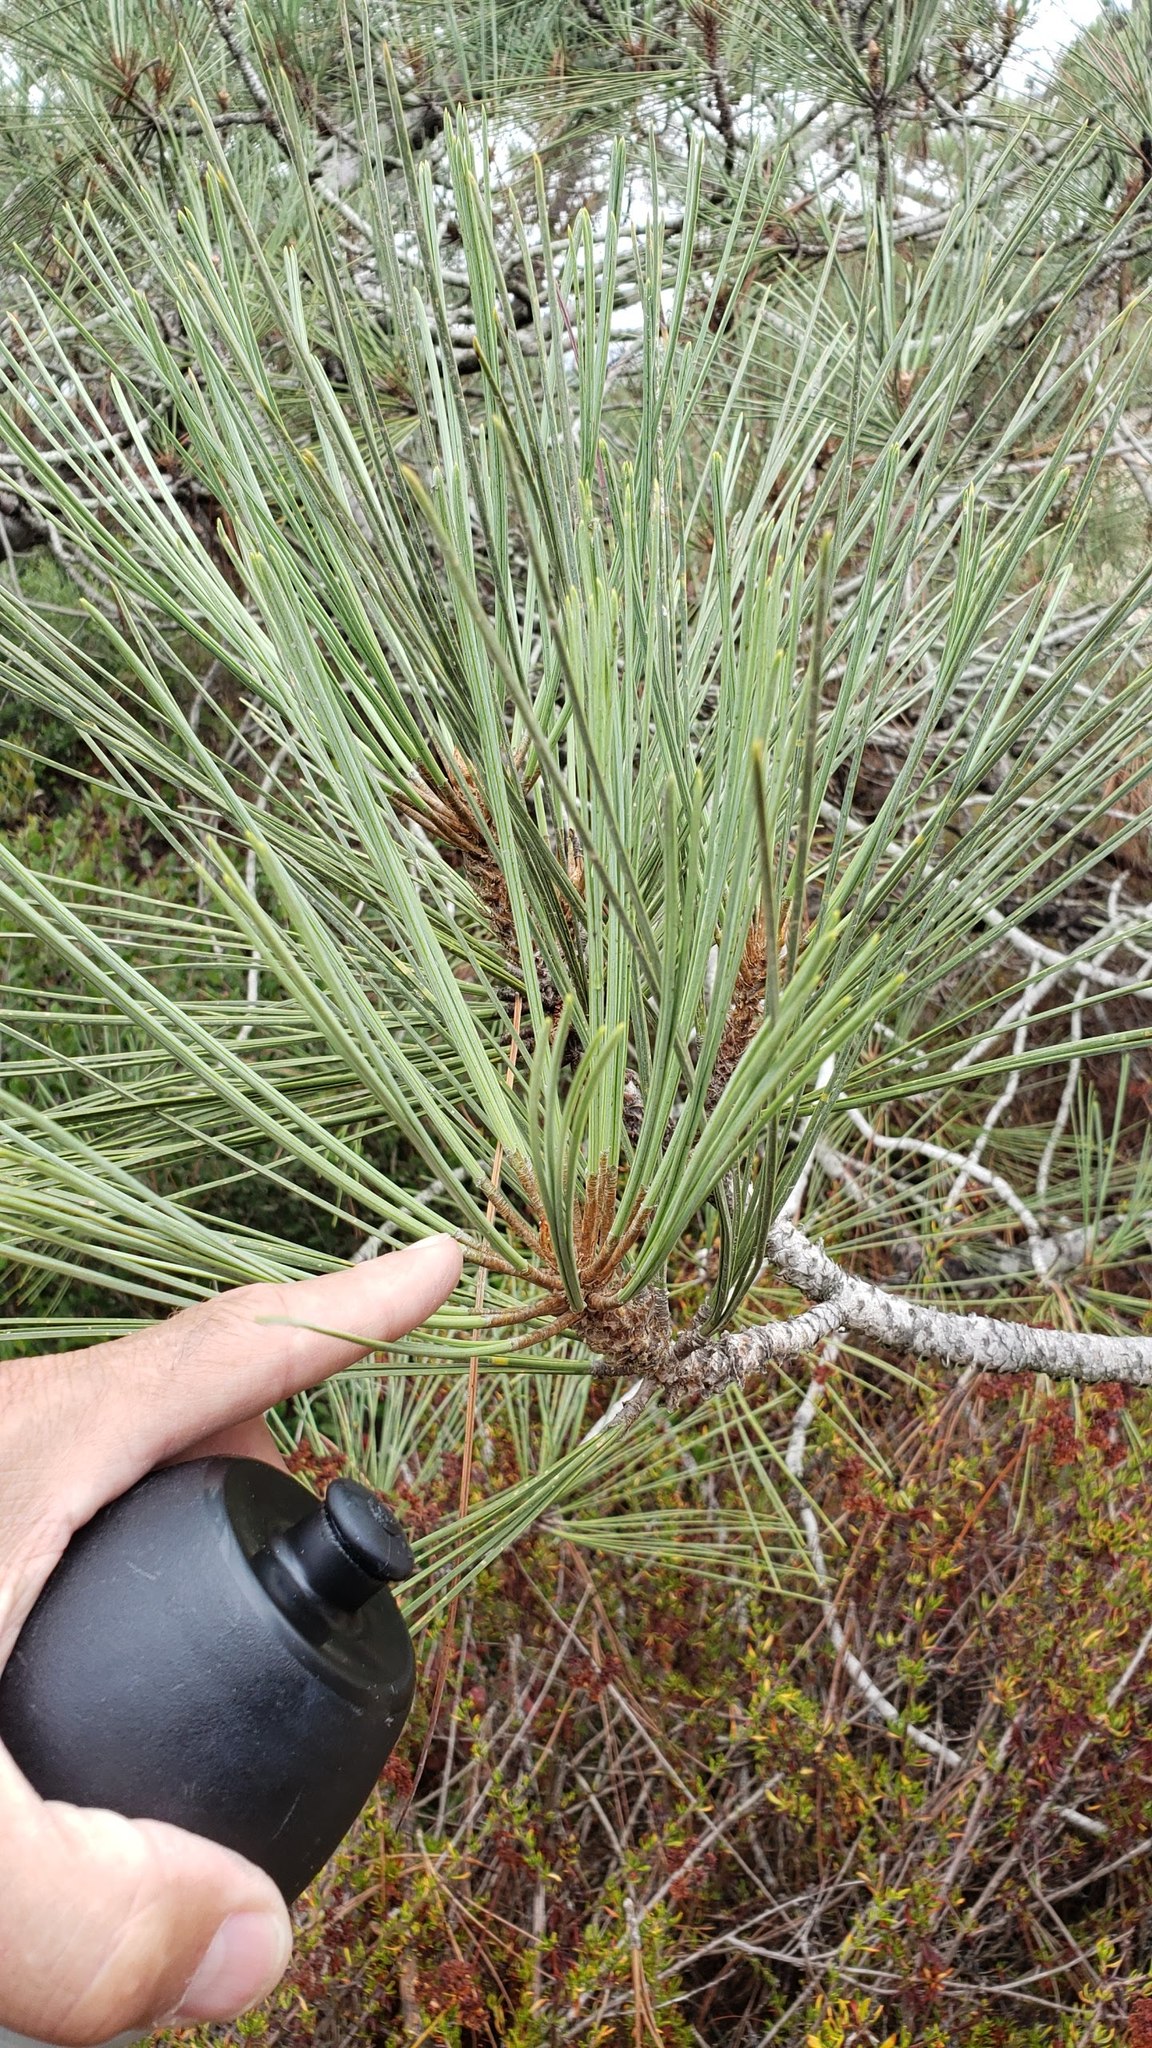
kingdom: Plantae
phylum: Tracheophyta
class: Pinopsida
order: Pinales
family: Pinaceae
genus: Pinus
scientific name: Pinus torreyana
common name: Torrey pine
